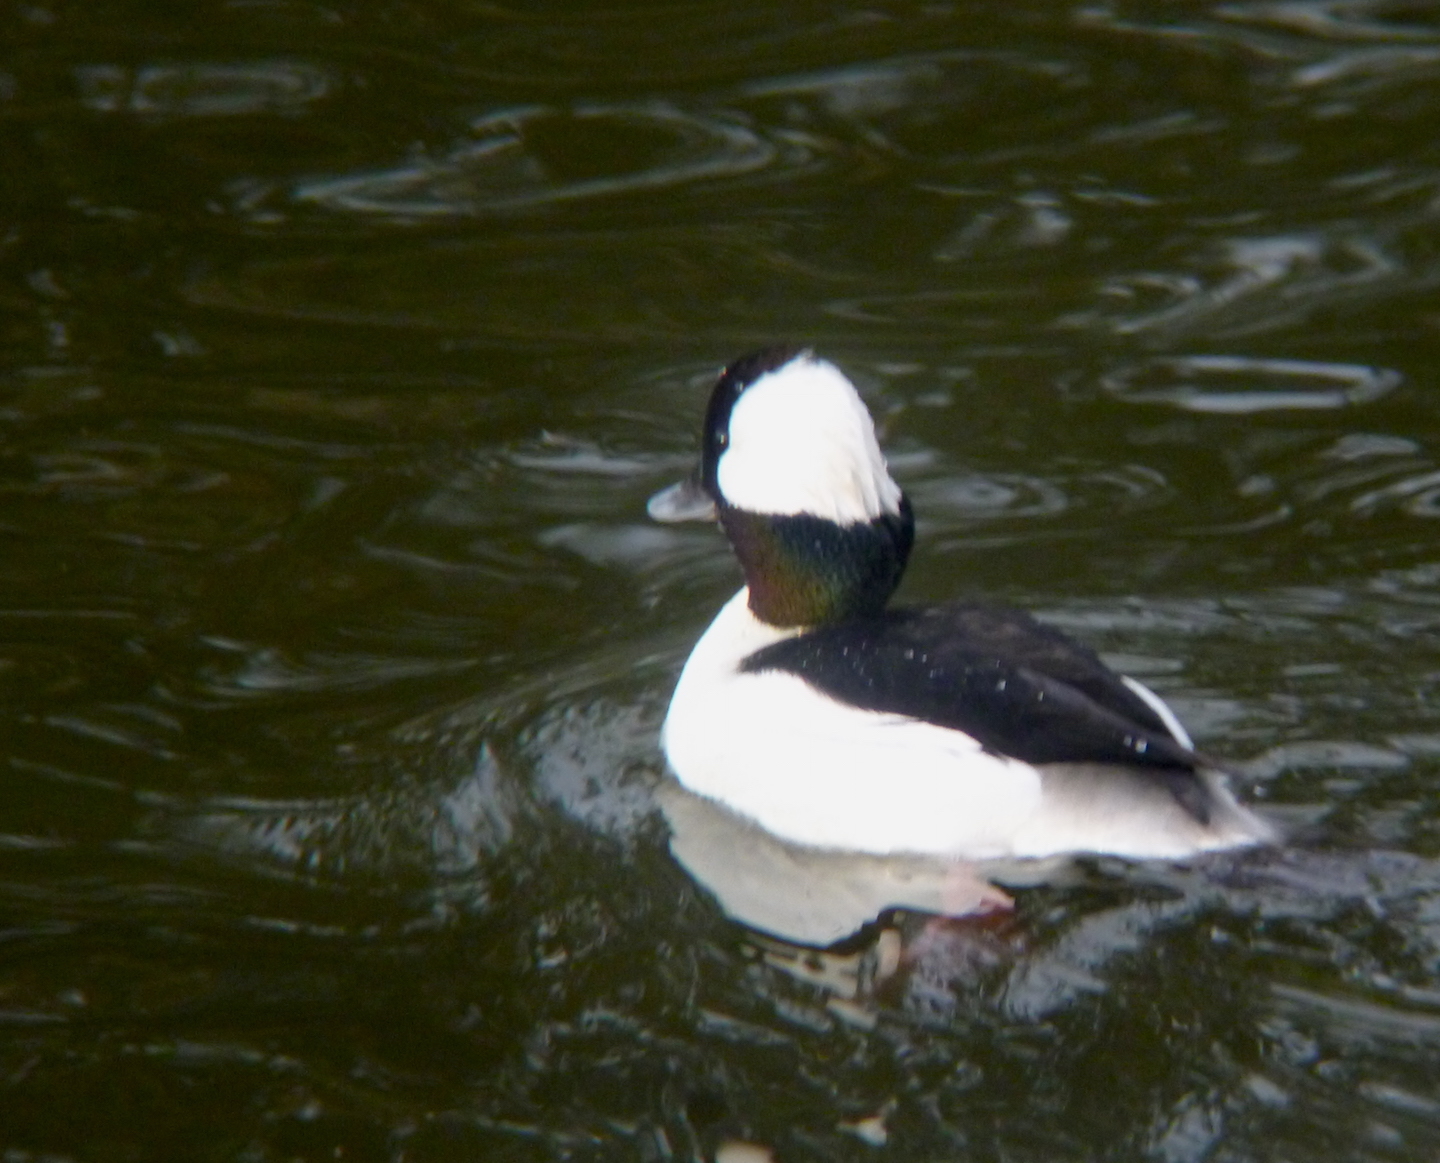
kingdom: Animalia
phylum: Chordata
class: Aves
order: Anseriformes
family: Anatidae
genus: Bucephala
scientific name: Bucephala albeola
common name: Bufflehead
